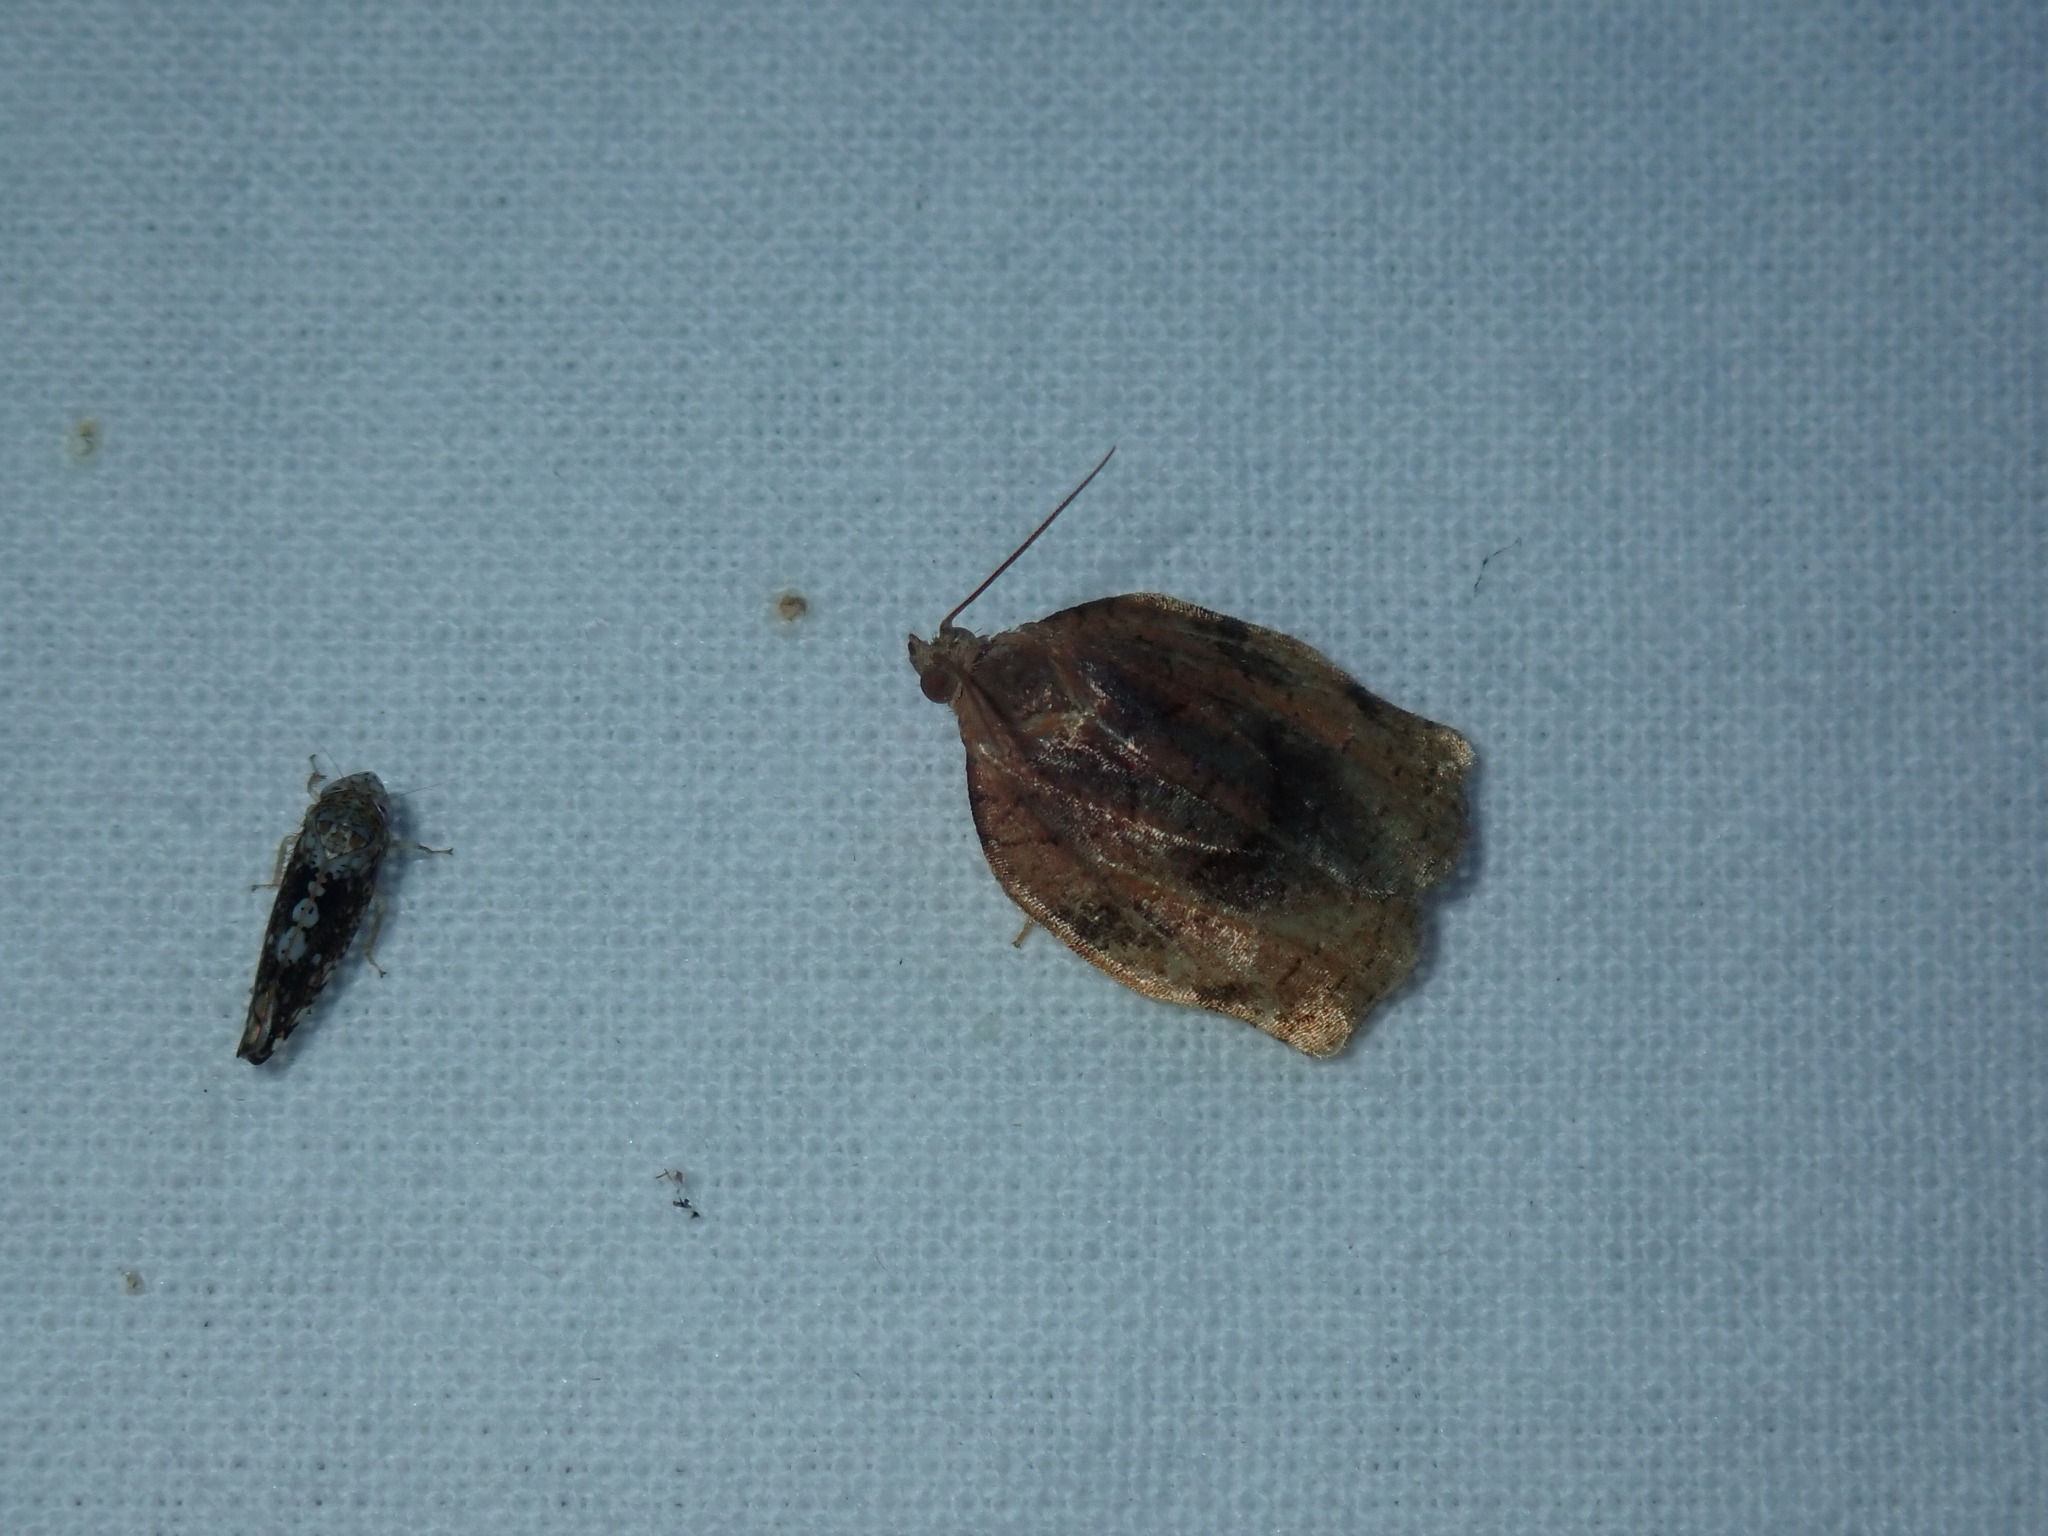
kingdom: Animalia
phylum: Arthropoda
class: Insecta
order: Lepidoptera
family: Tortricidae
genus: Archips
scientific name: Archips purpurana
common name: Omnivorous leafroller
